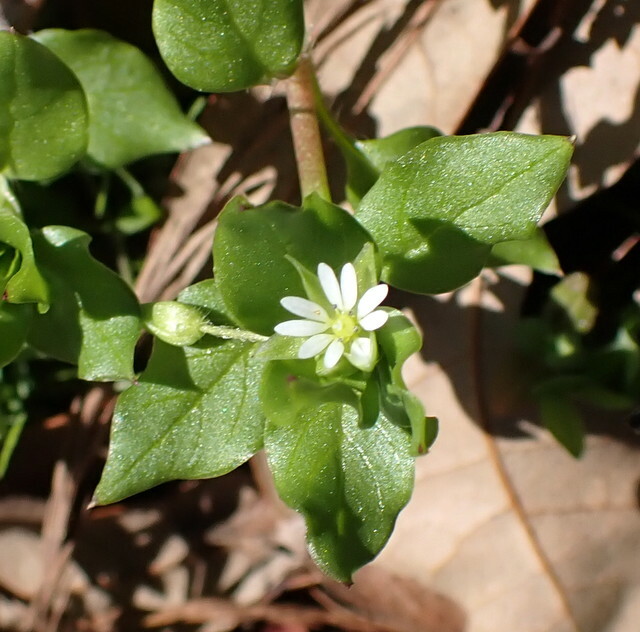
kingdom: Plantae
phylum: Tracheophyta
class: Magnoliopsida
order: Caryophyllales
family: Caryophyllaceae
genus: Stellaria
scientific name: Stellaria media
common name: Common chickweed
